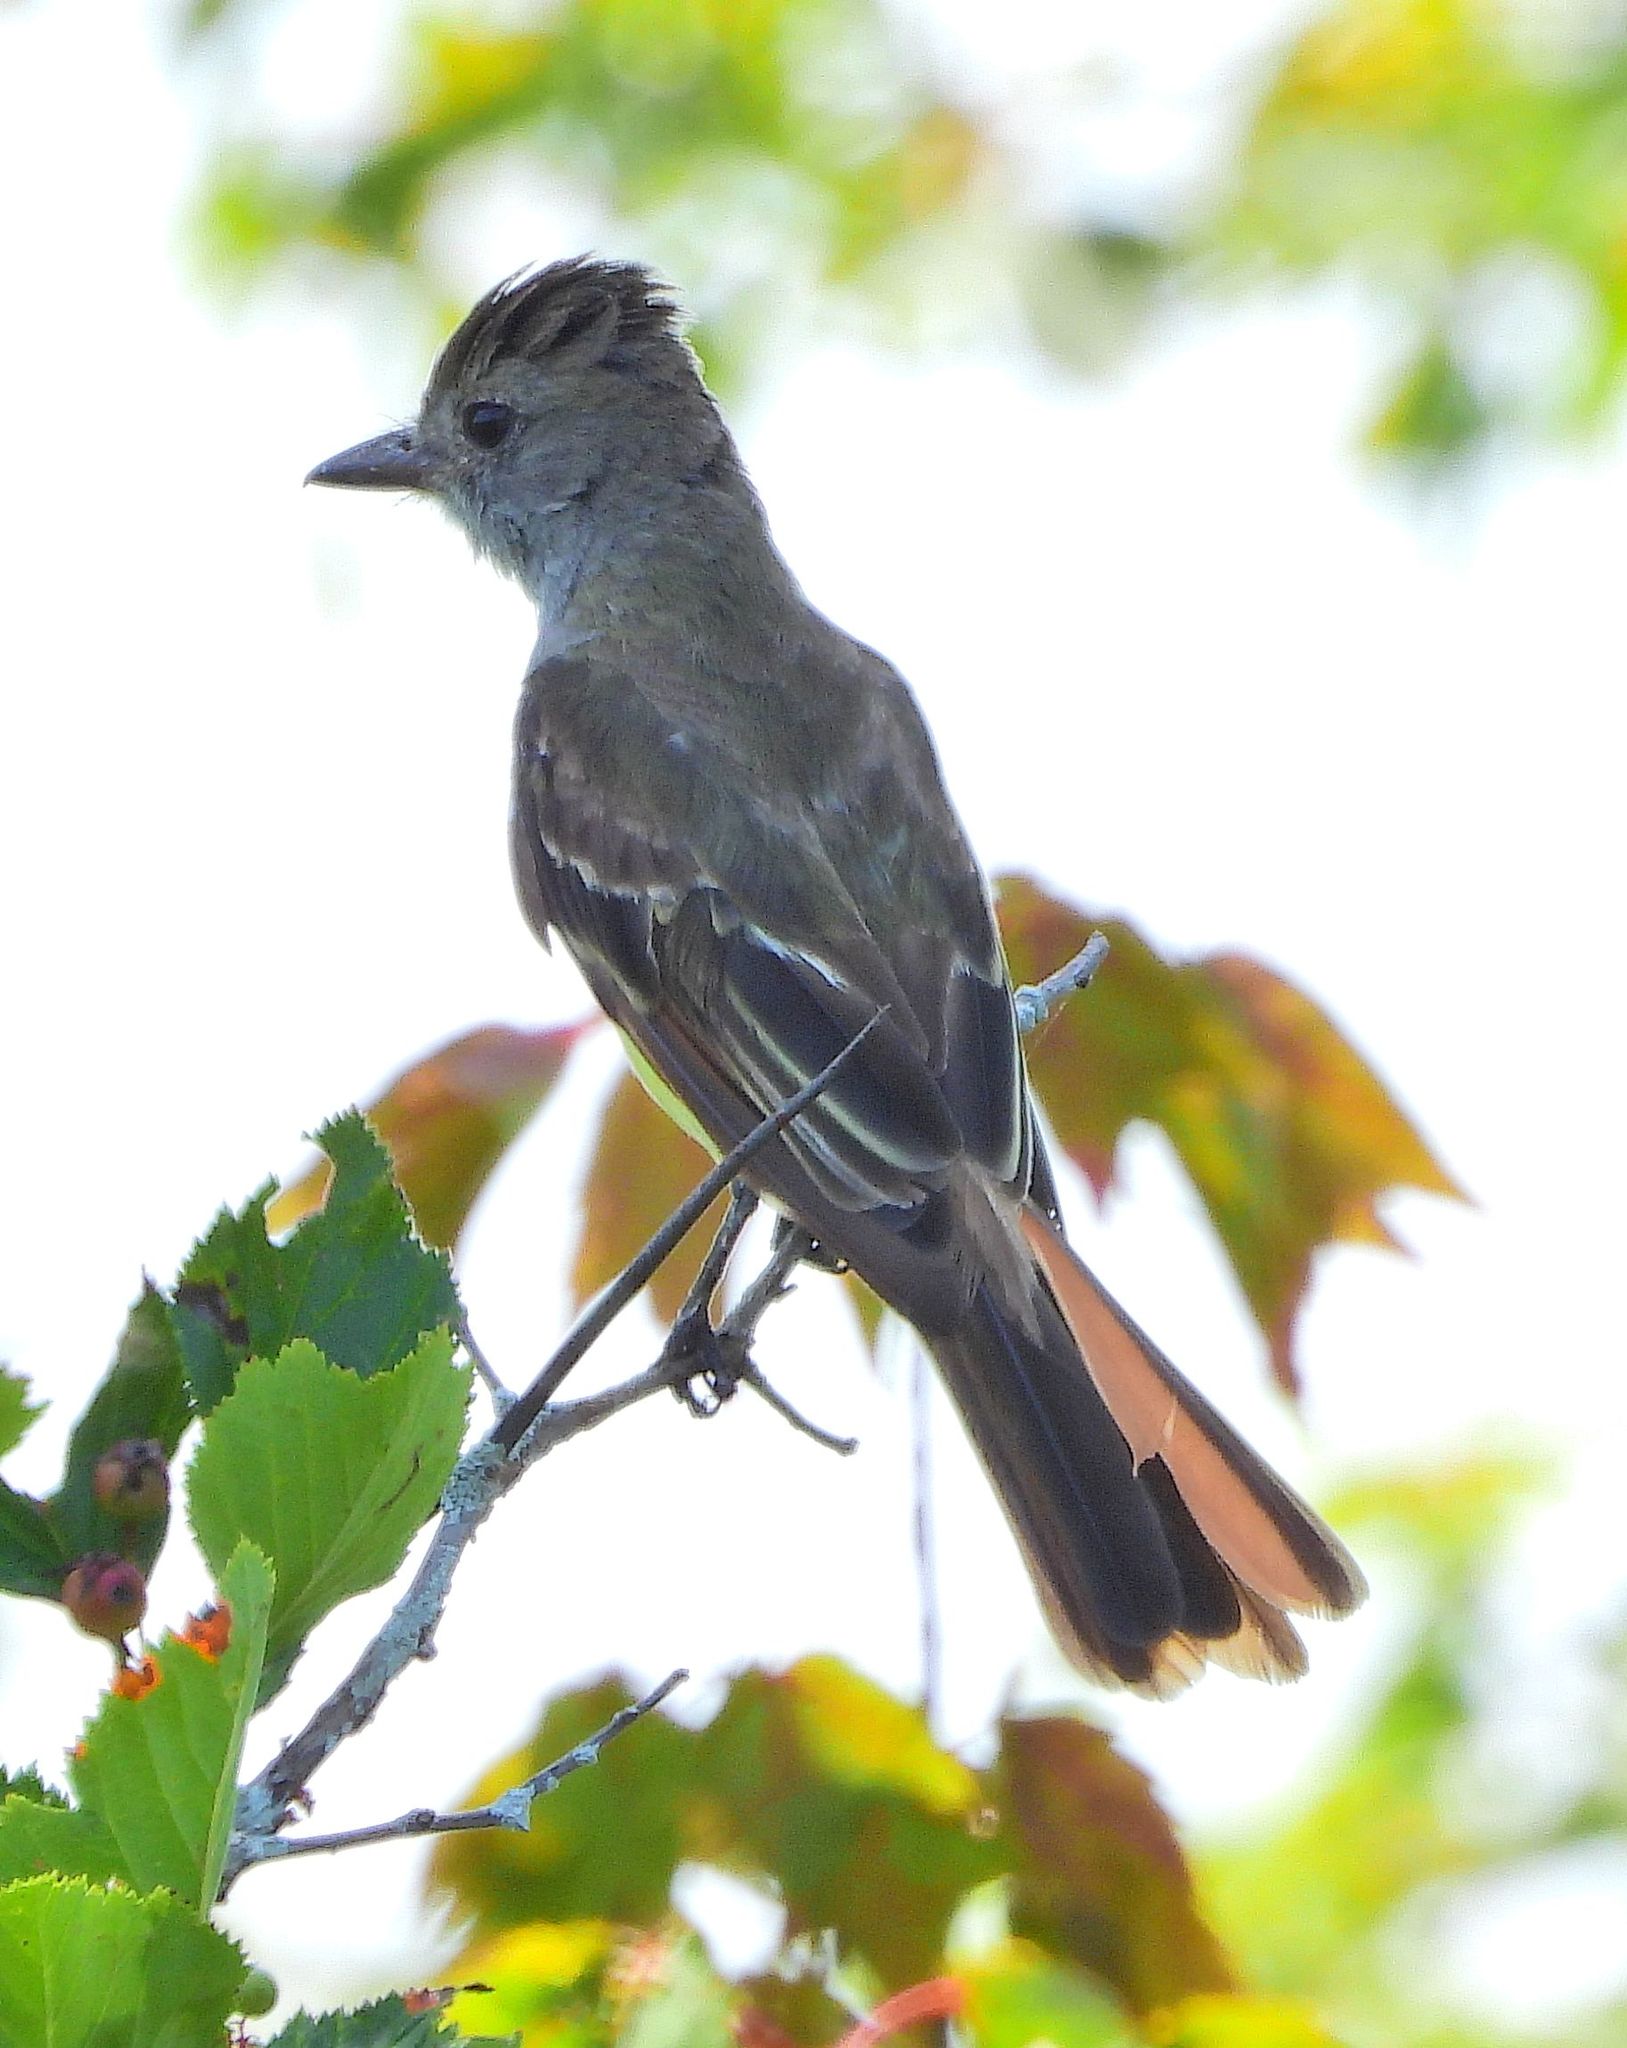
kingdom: Animalia
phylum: Chordata
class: Aves
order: Passeriformes
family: Tyrannidae
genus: Myiarchus
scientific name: Myiarchus crinitus
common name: Great crested flycatcher
